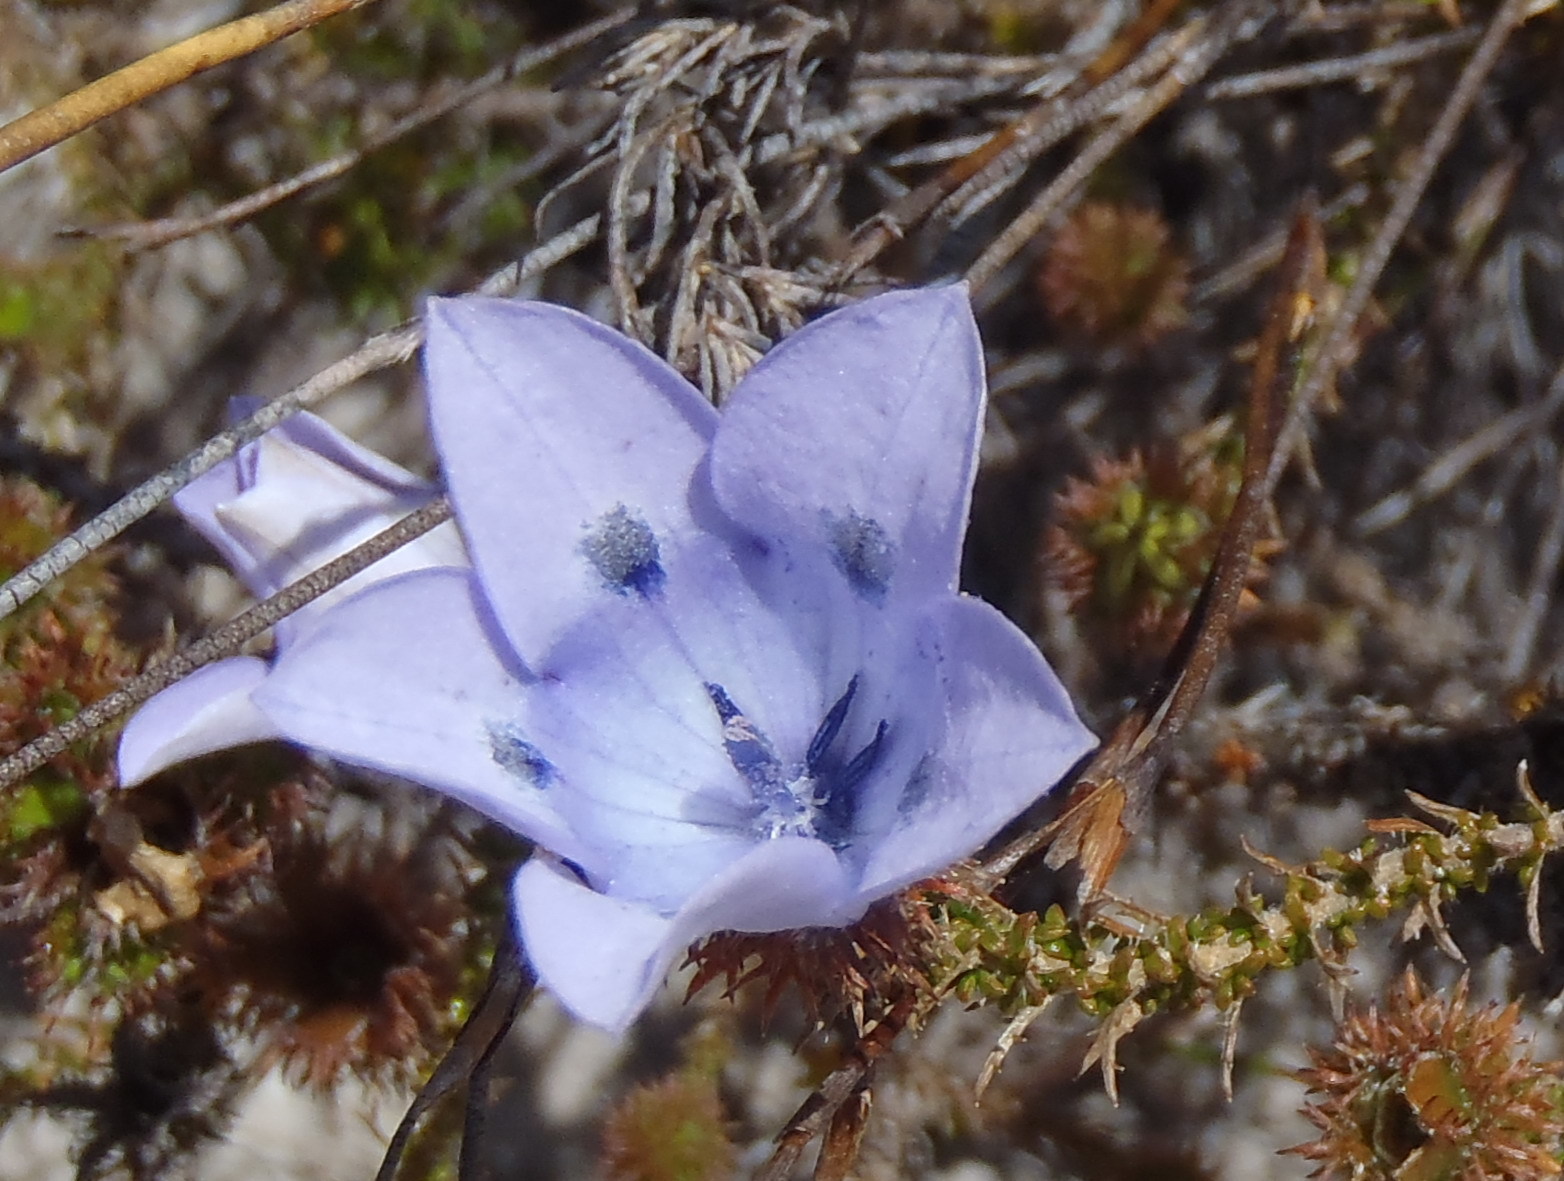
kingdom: Plantae
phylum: Tracheophyta
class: Magnoliopsida
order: Asterales
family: Campanulaceae
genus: Roella
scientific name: Roella incurva
